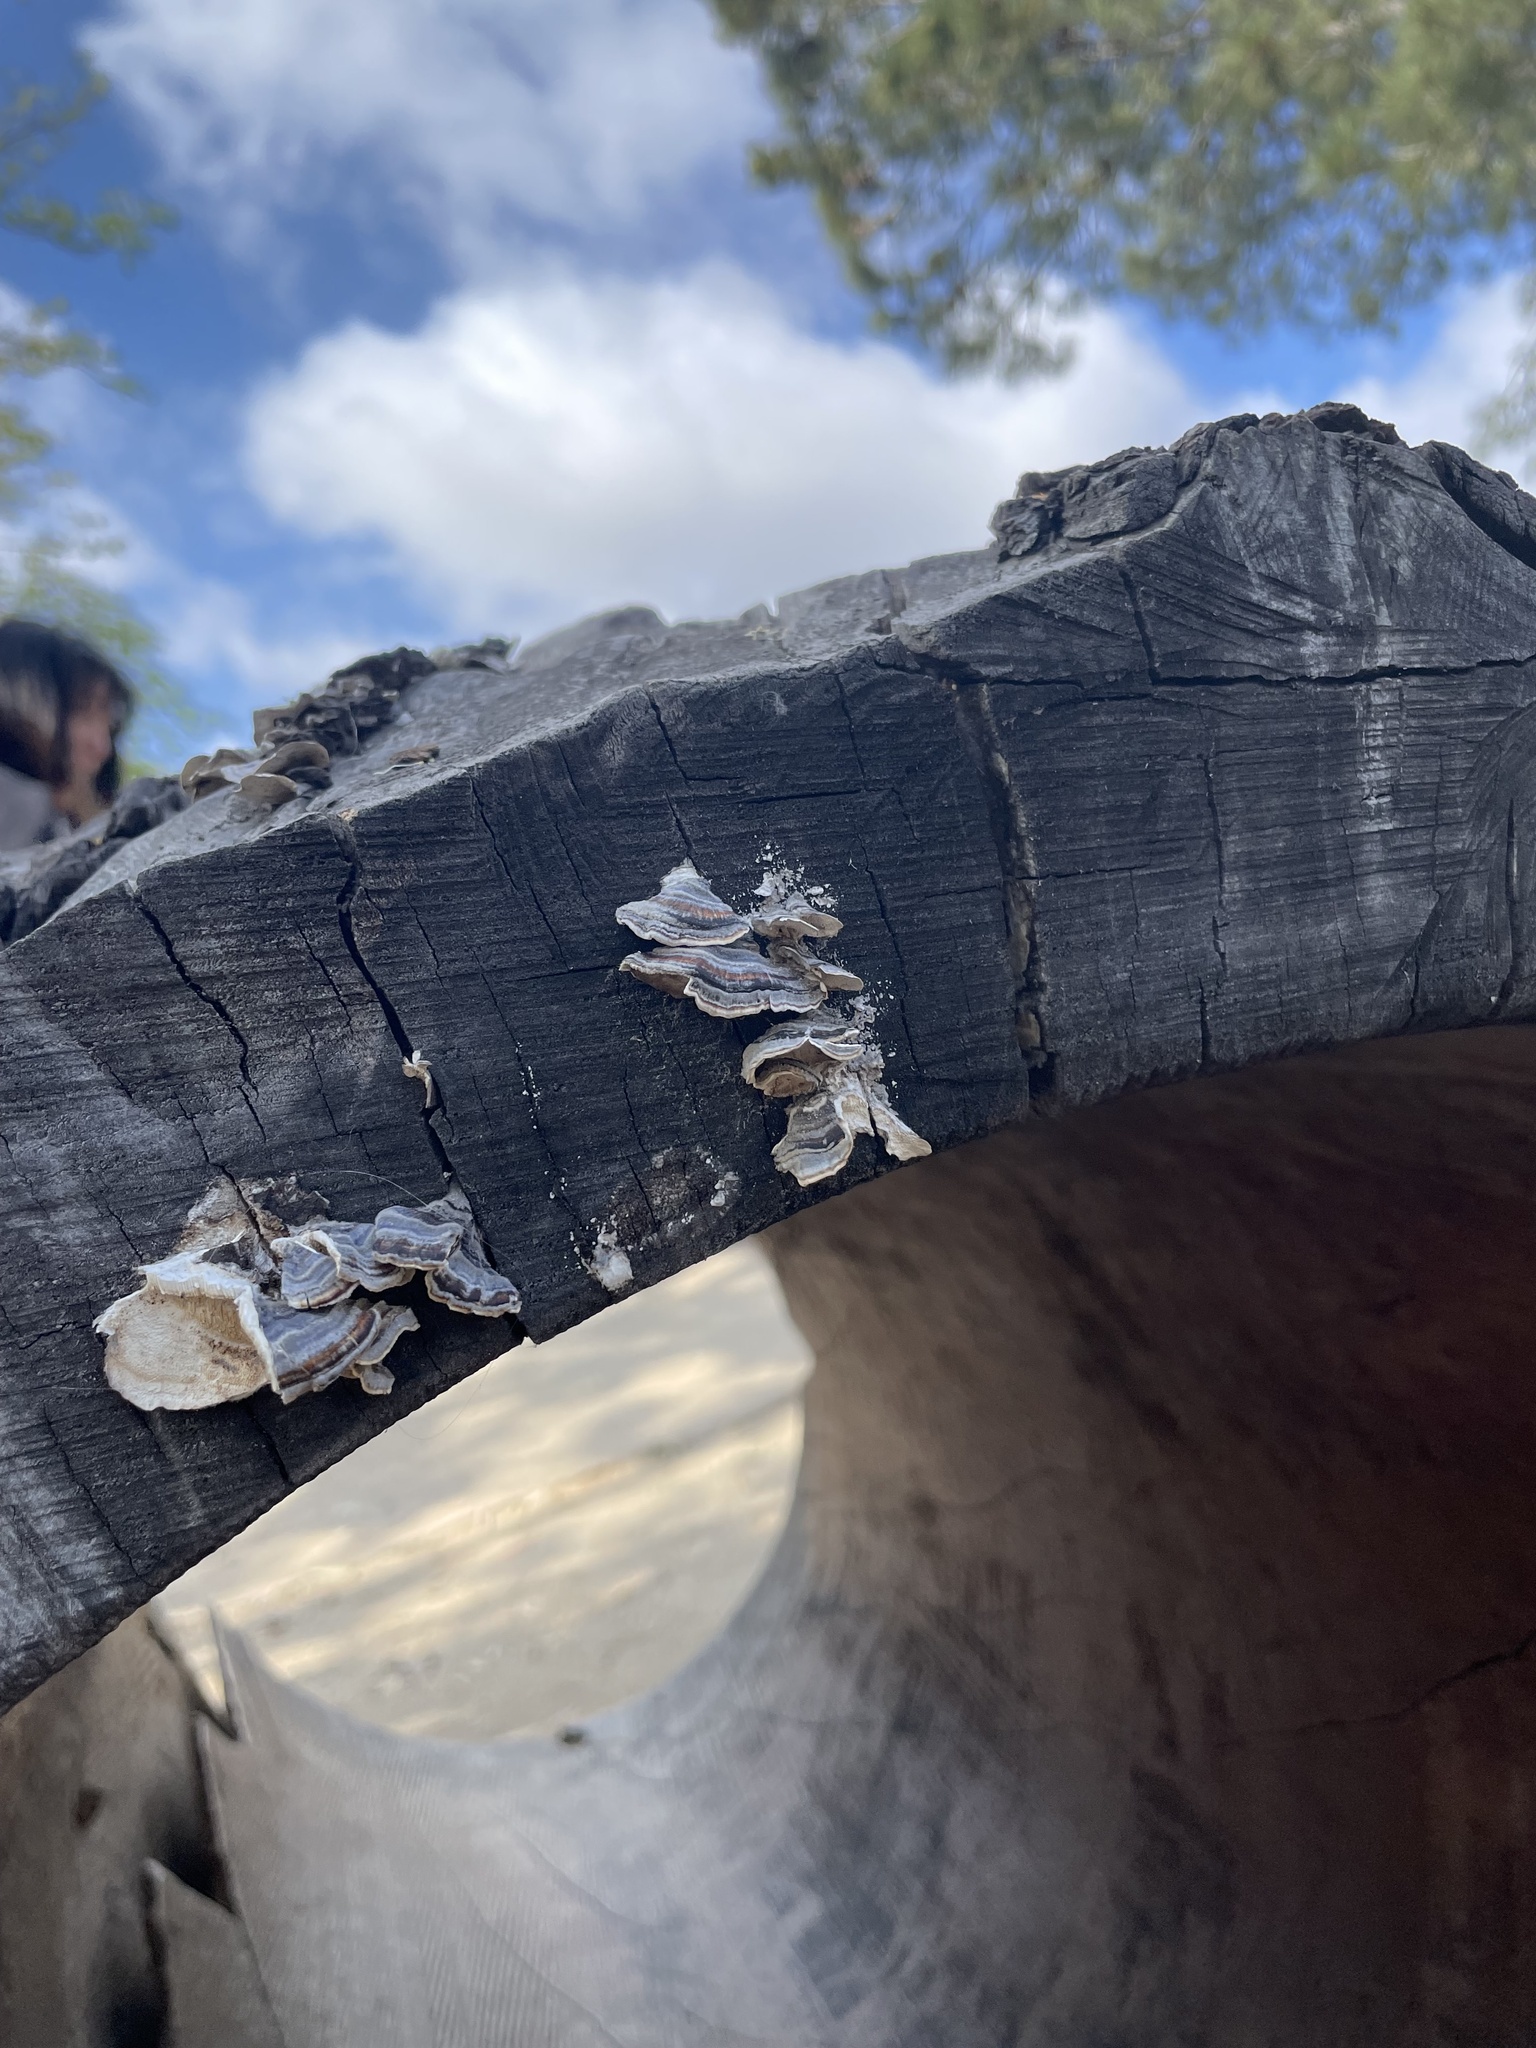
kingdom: Fungi
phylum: Basidiomycota
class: Agaricomycetes
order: Polyporales
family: Polyporaceae
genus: Trametes
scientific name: Trametes versicolor
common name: Turkeytail
